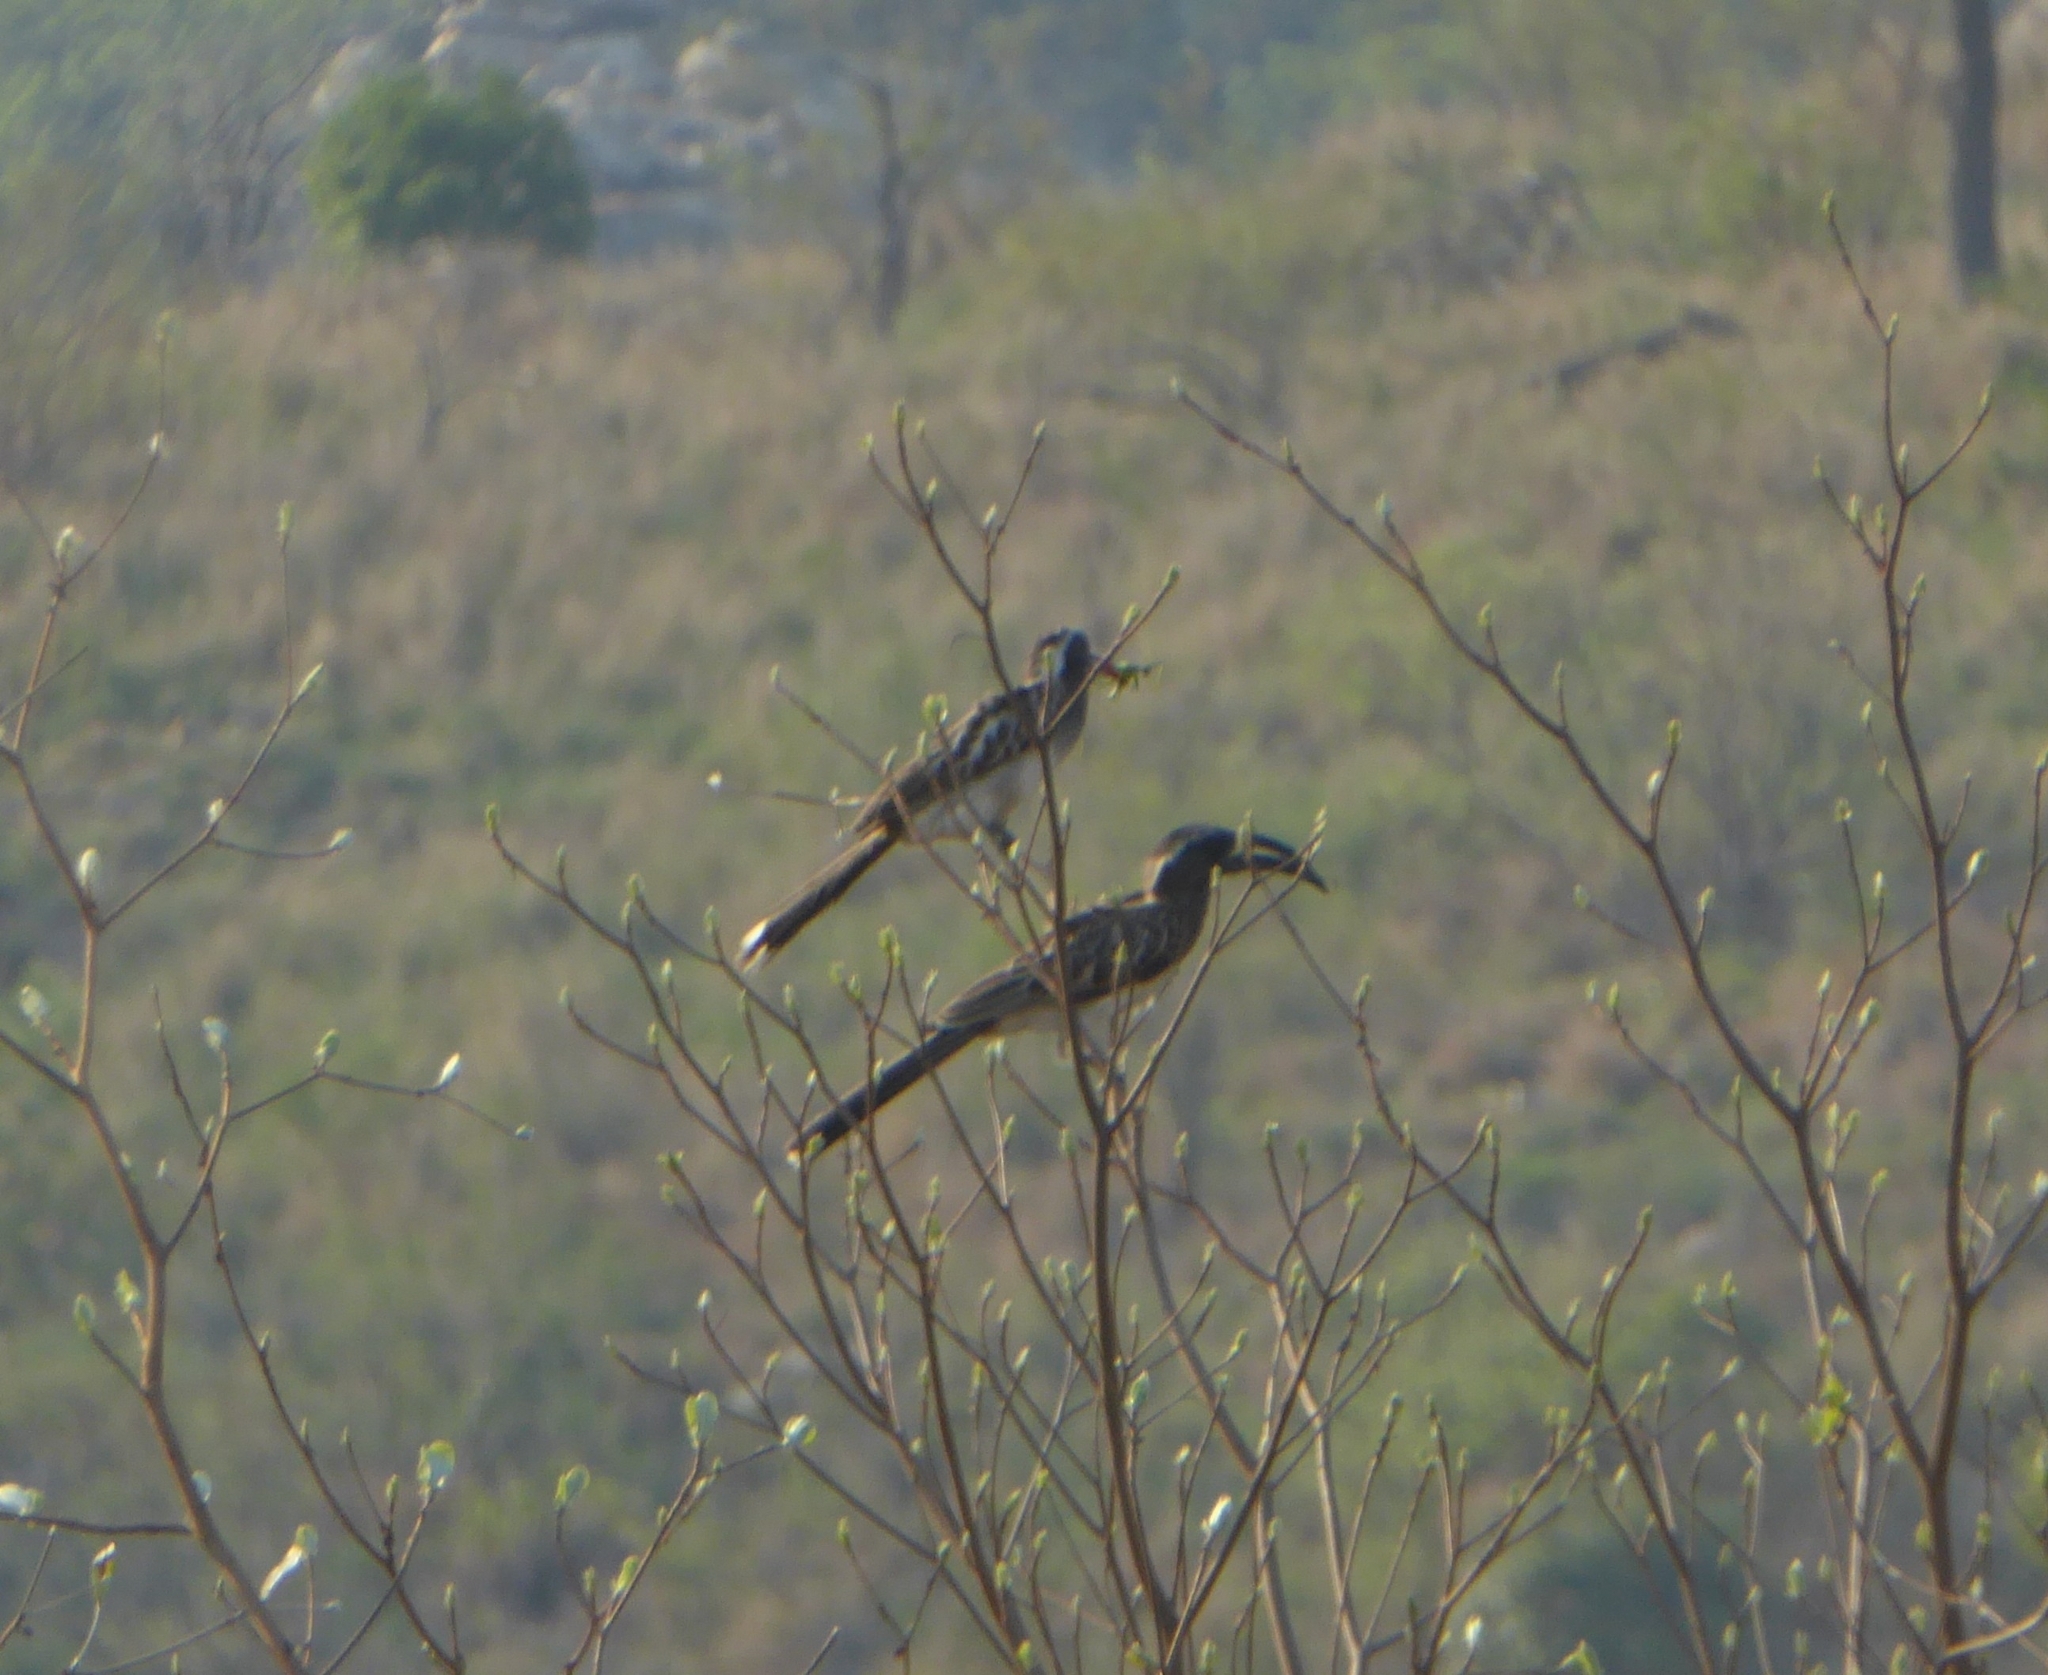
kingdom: Animalia
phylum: Chordata
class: Aves
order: Bucerotiformes
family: Bucerotidae
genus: Lophoceros
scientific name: Lophoceros nasutus
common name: African grey hornbill
